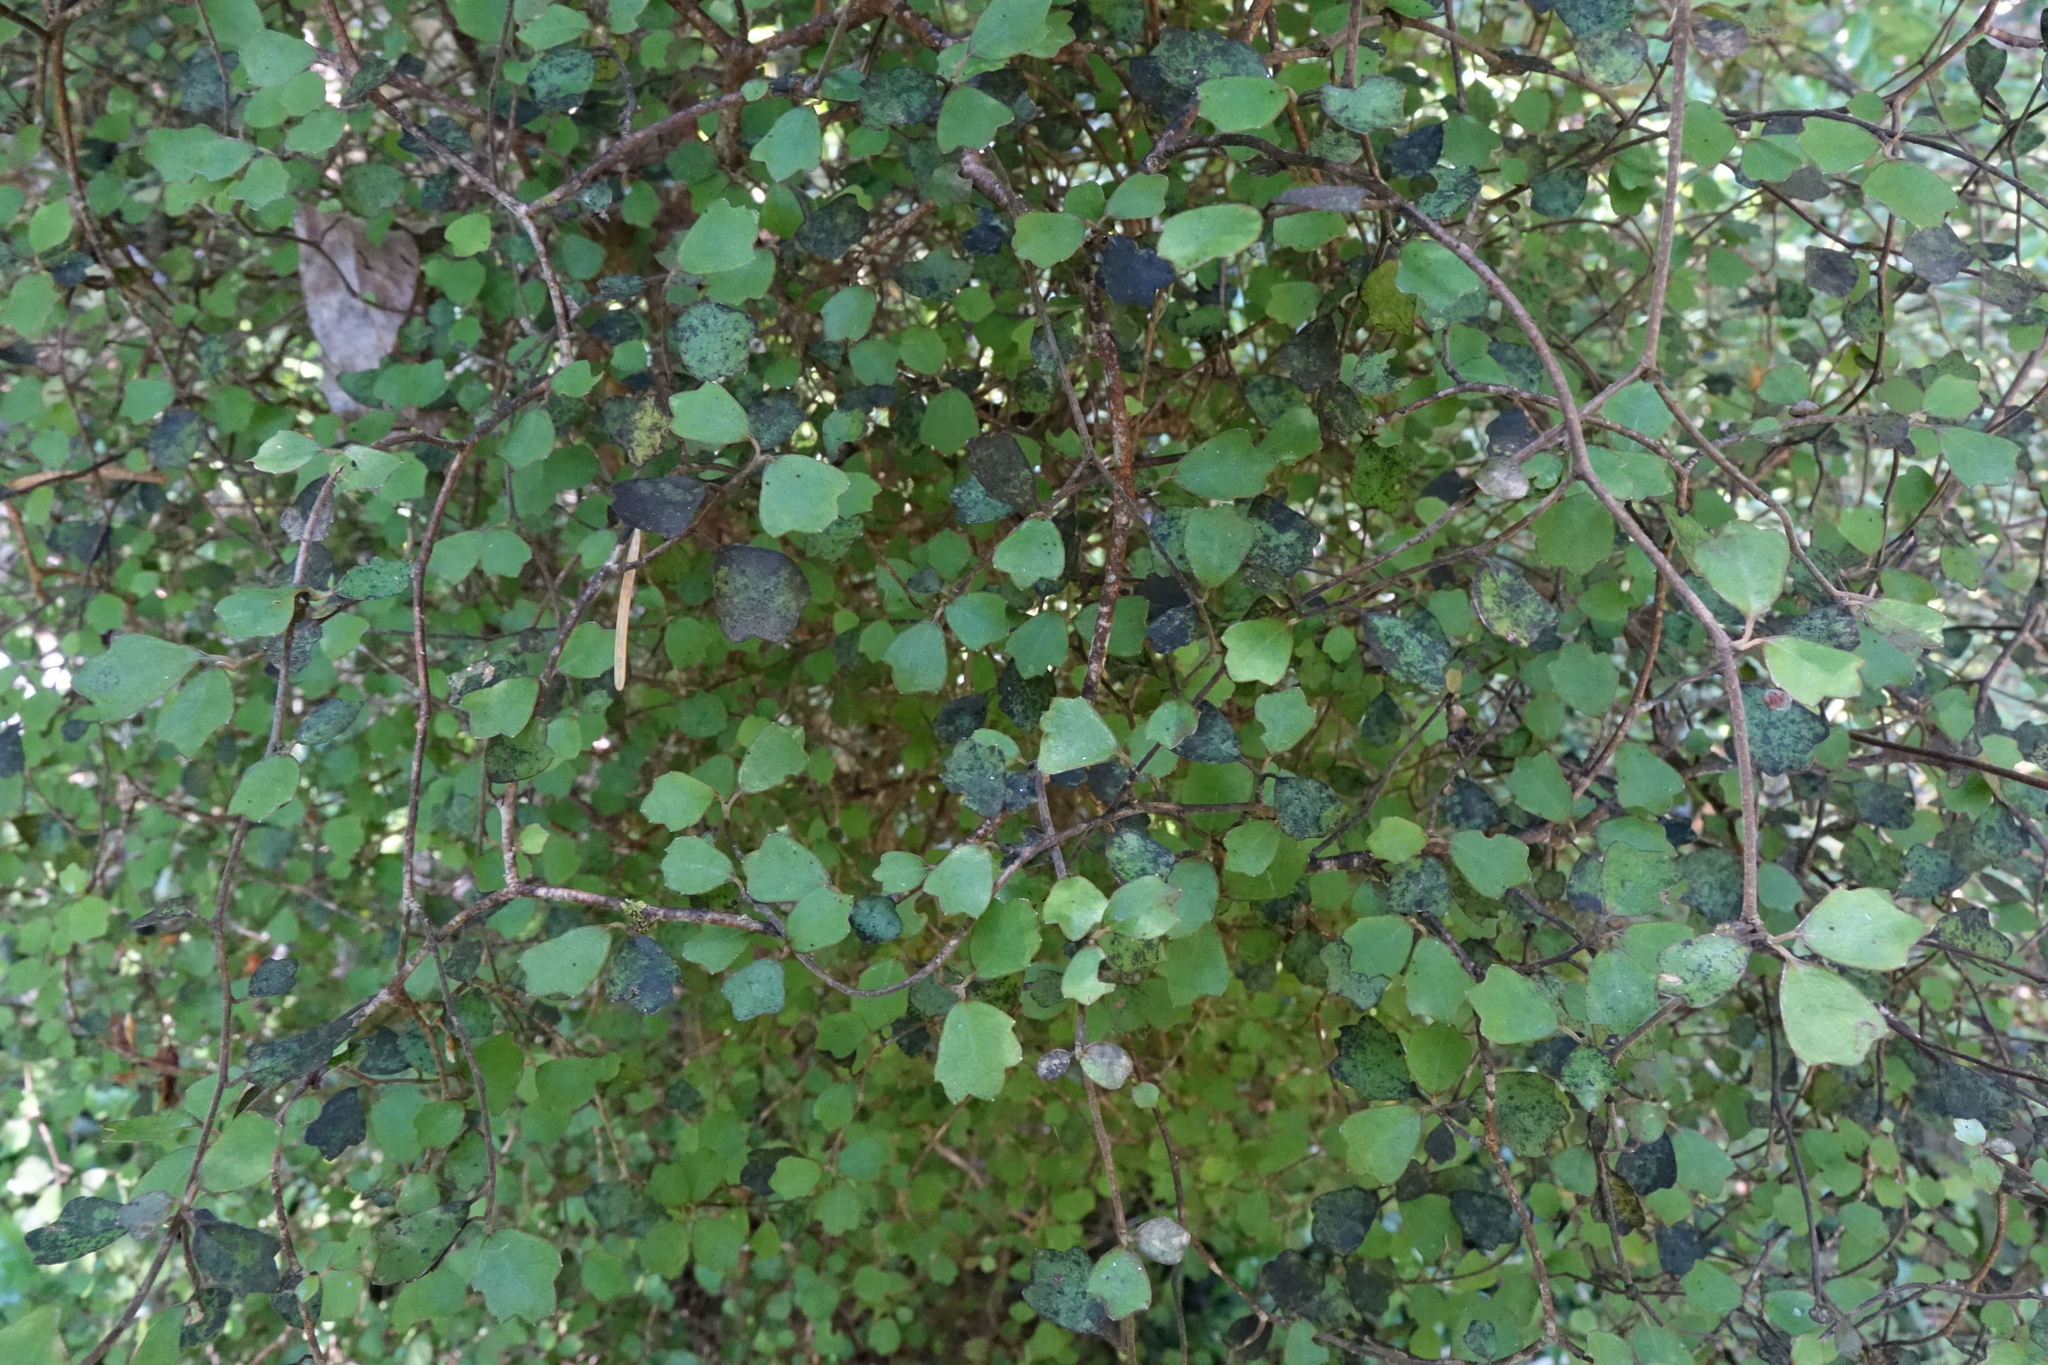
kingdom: Plantae
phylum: Tracheophyta
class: Magnoliopsida
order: Apiales
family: Pennantiaceae
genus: Pennantia
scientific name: Pennantia corymbosa
